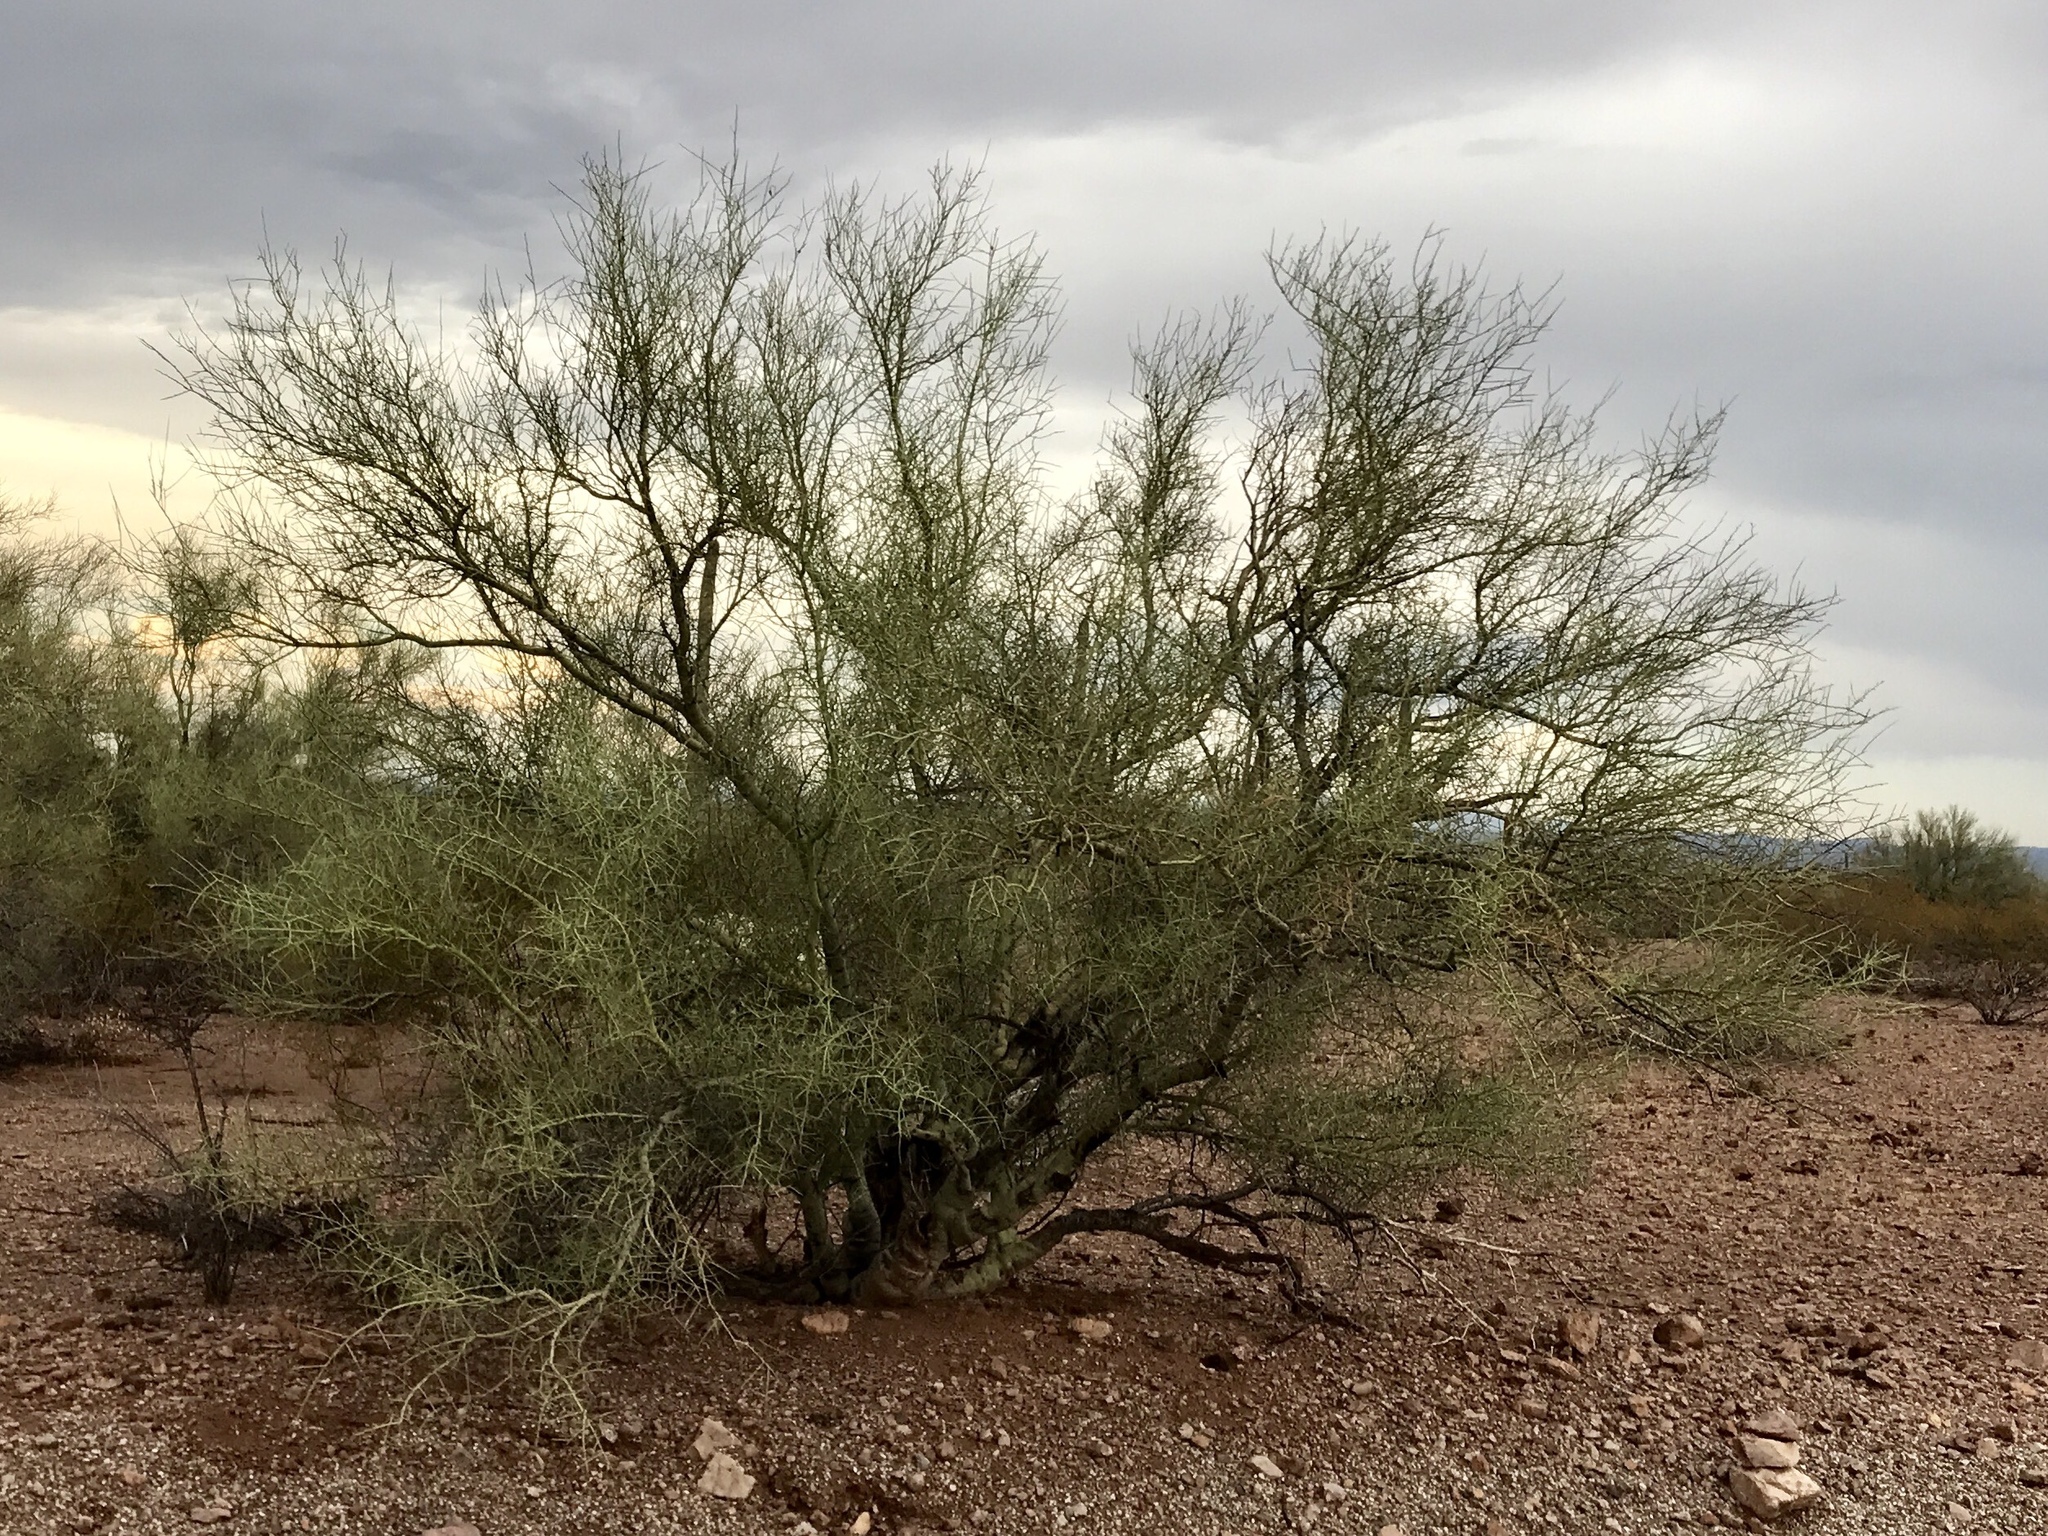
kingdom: Plantae
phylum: Tracheophyta
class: Magnoliopsida
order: Fabales
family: Fabaceae
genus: Parkinsonia
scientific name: Parkinsonia microphylla
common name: Yellow paloverde
